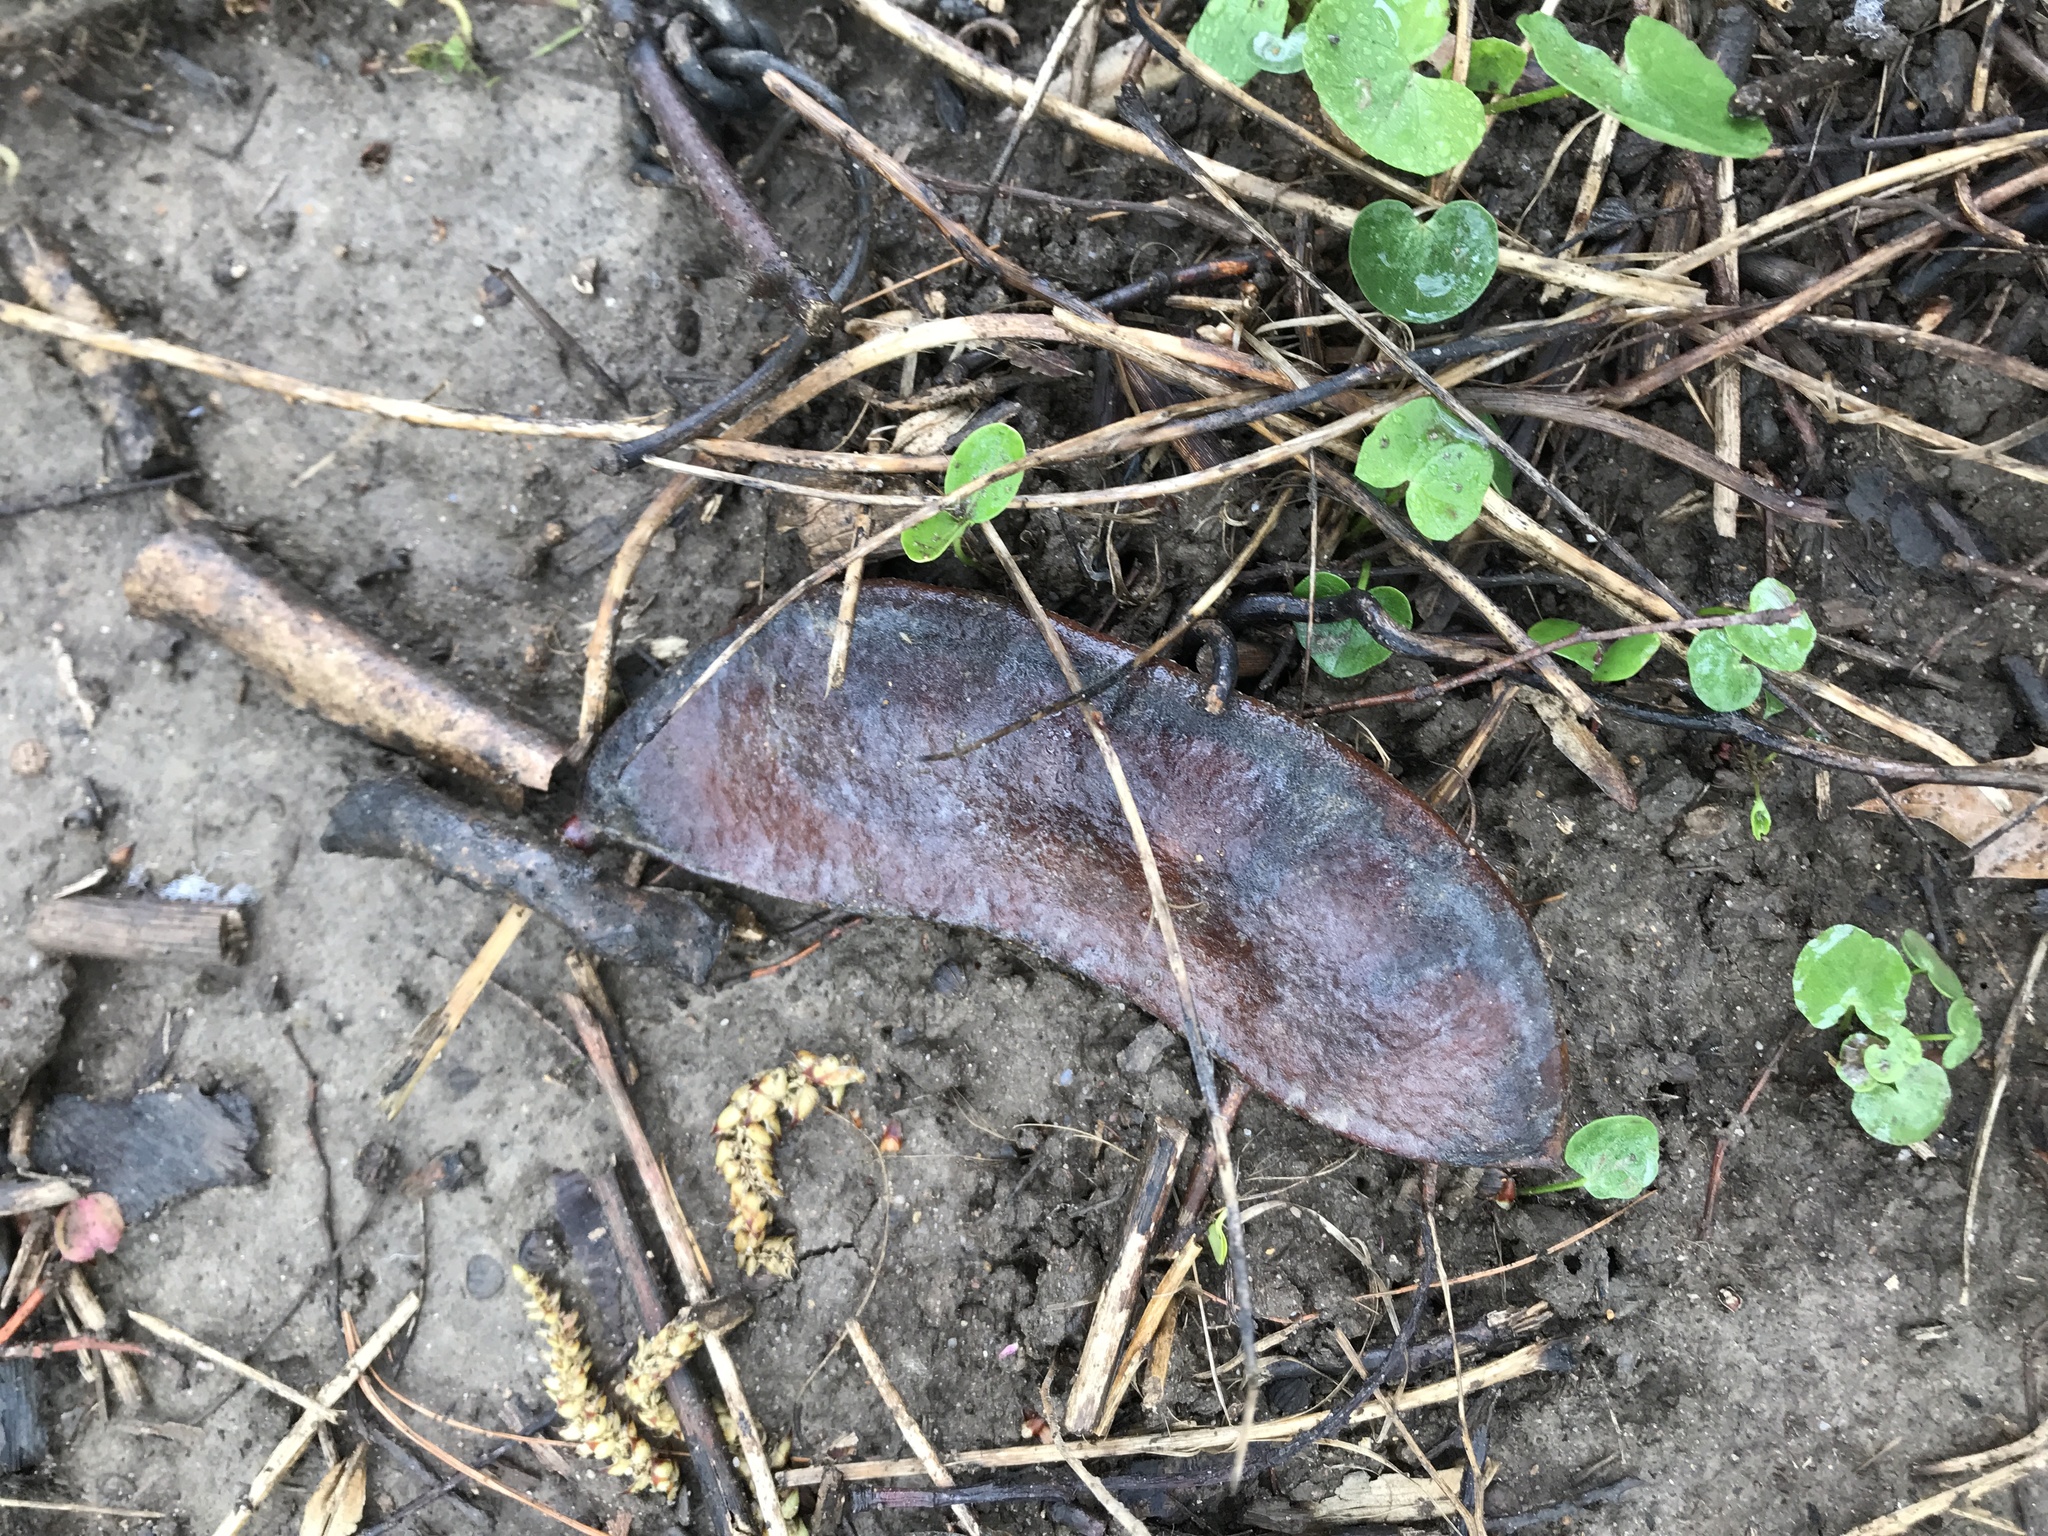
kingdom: Plantae
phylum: Tracheophyta
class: Magnoliopsida
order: Fabales
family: Fabaceae
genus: Gymnocladus
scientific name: Gymnocladus dioicus
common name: Kentucky coffee-tree
